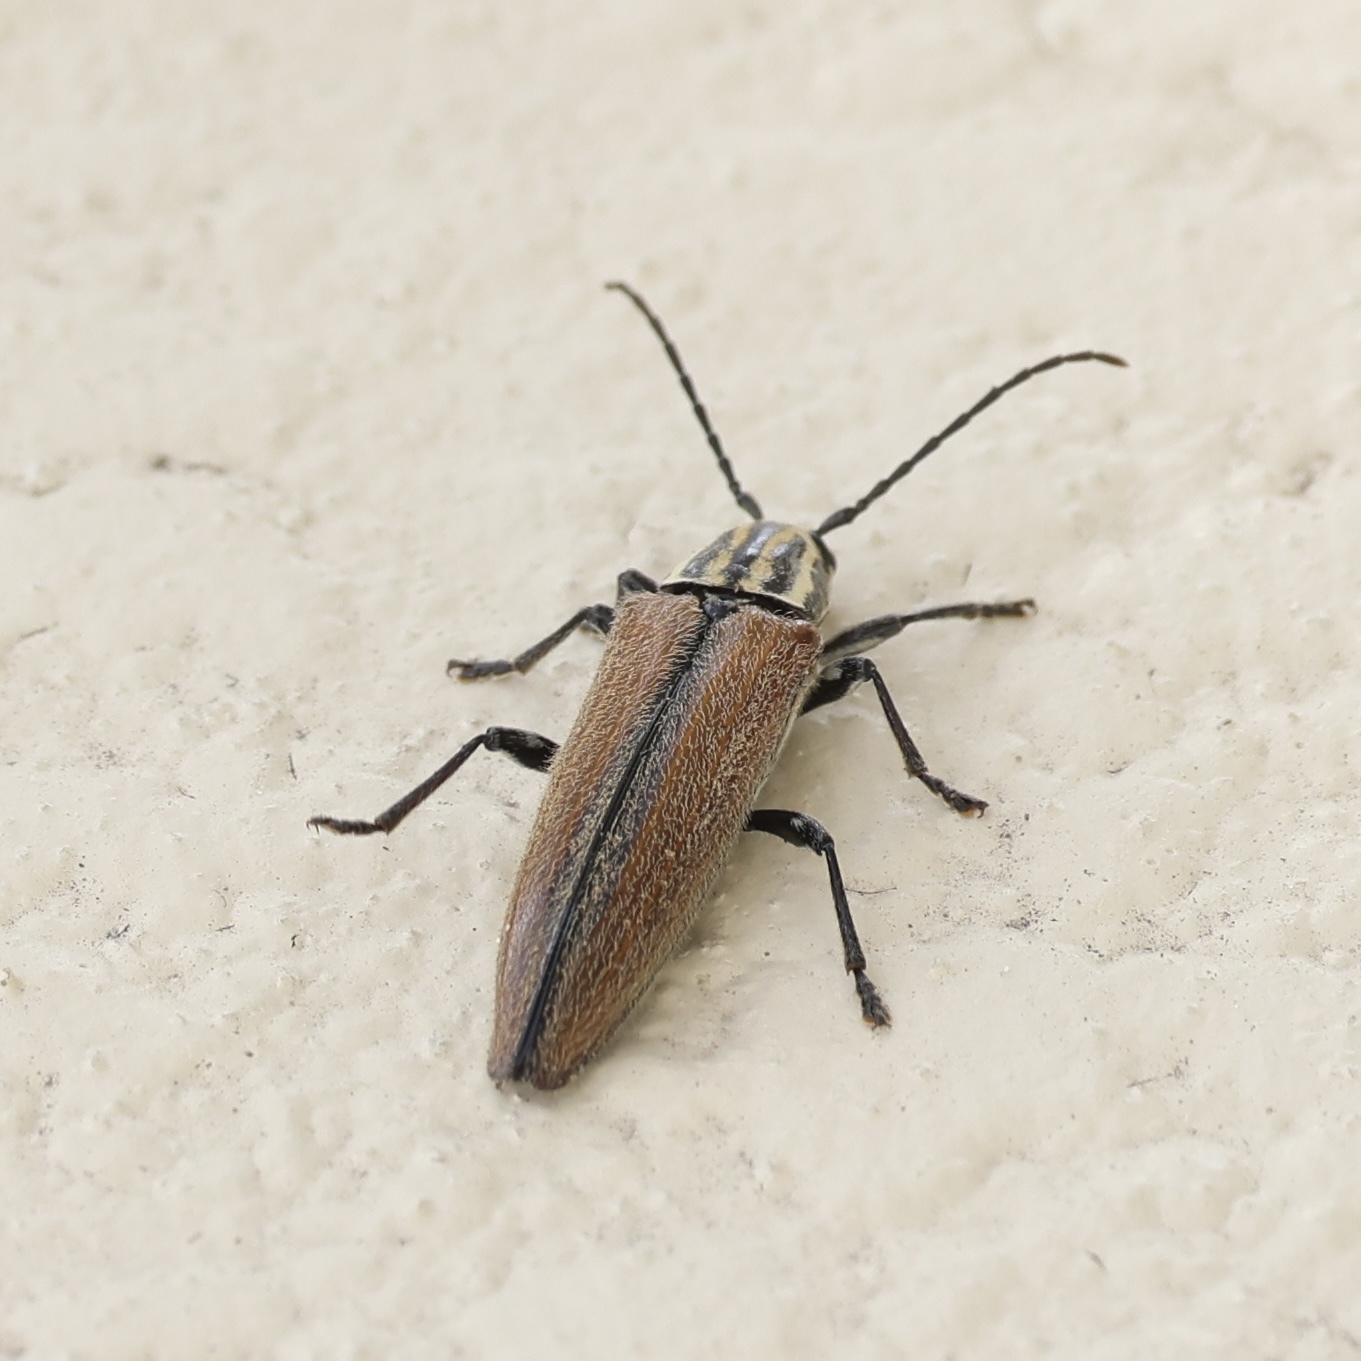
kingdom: Animalia
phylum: Arthropoda
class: Insecta
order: Coleoptera
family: Cerambycidae
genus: Osmopleura
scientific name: Osmopleura chamaeropis
